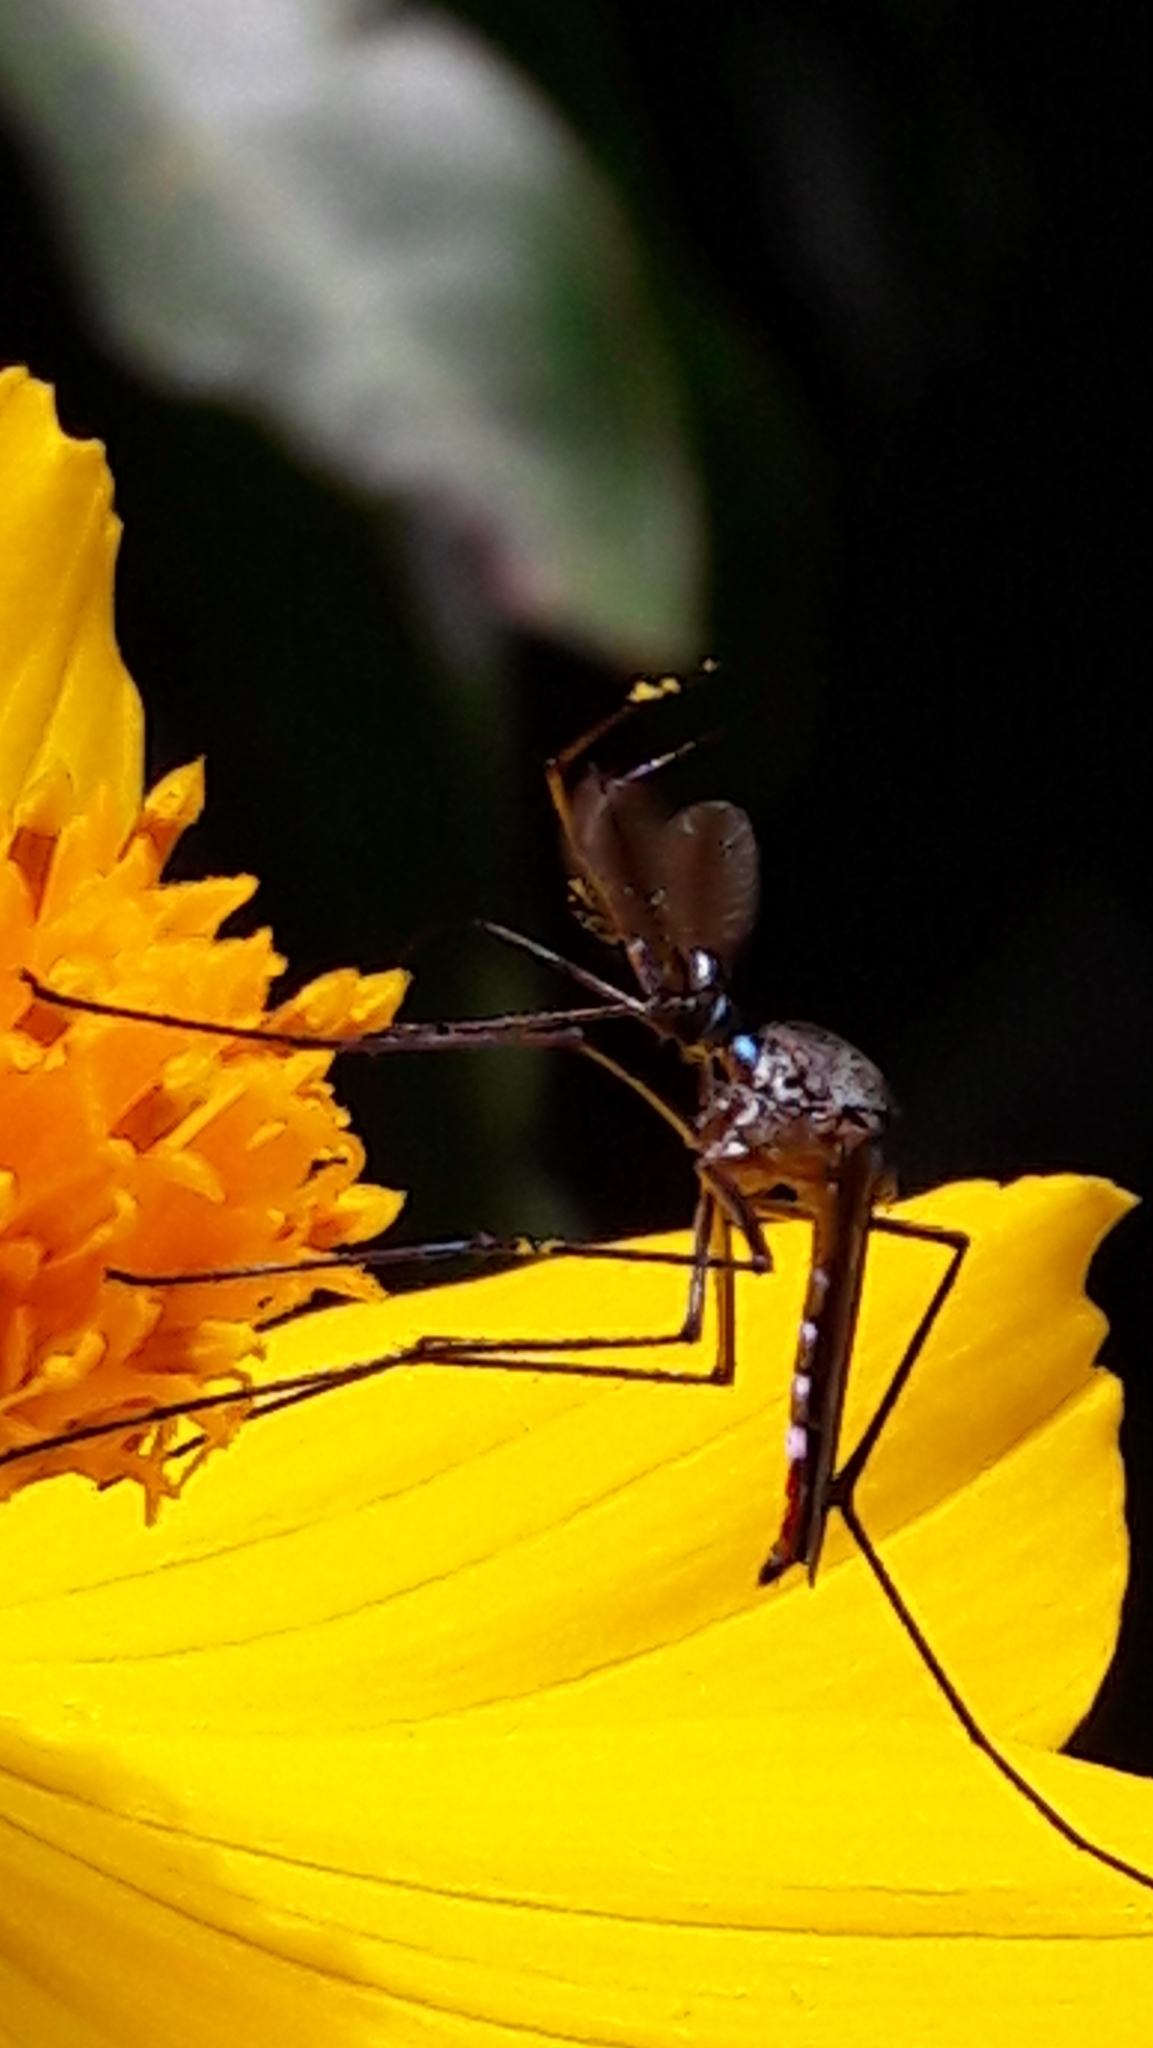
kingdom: Animalia
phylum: Arthropoda
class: Insecta
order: Diptera
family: Culicidae
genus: Toxorhynchites
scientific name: Toxorhynchites haemorrhoidalis
